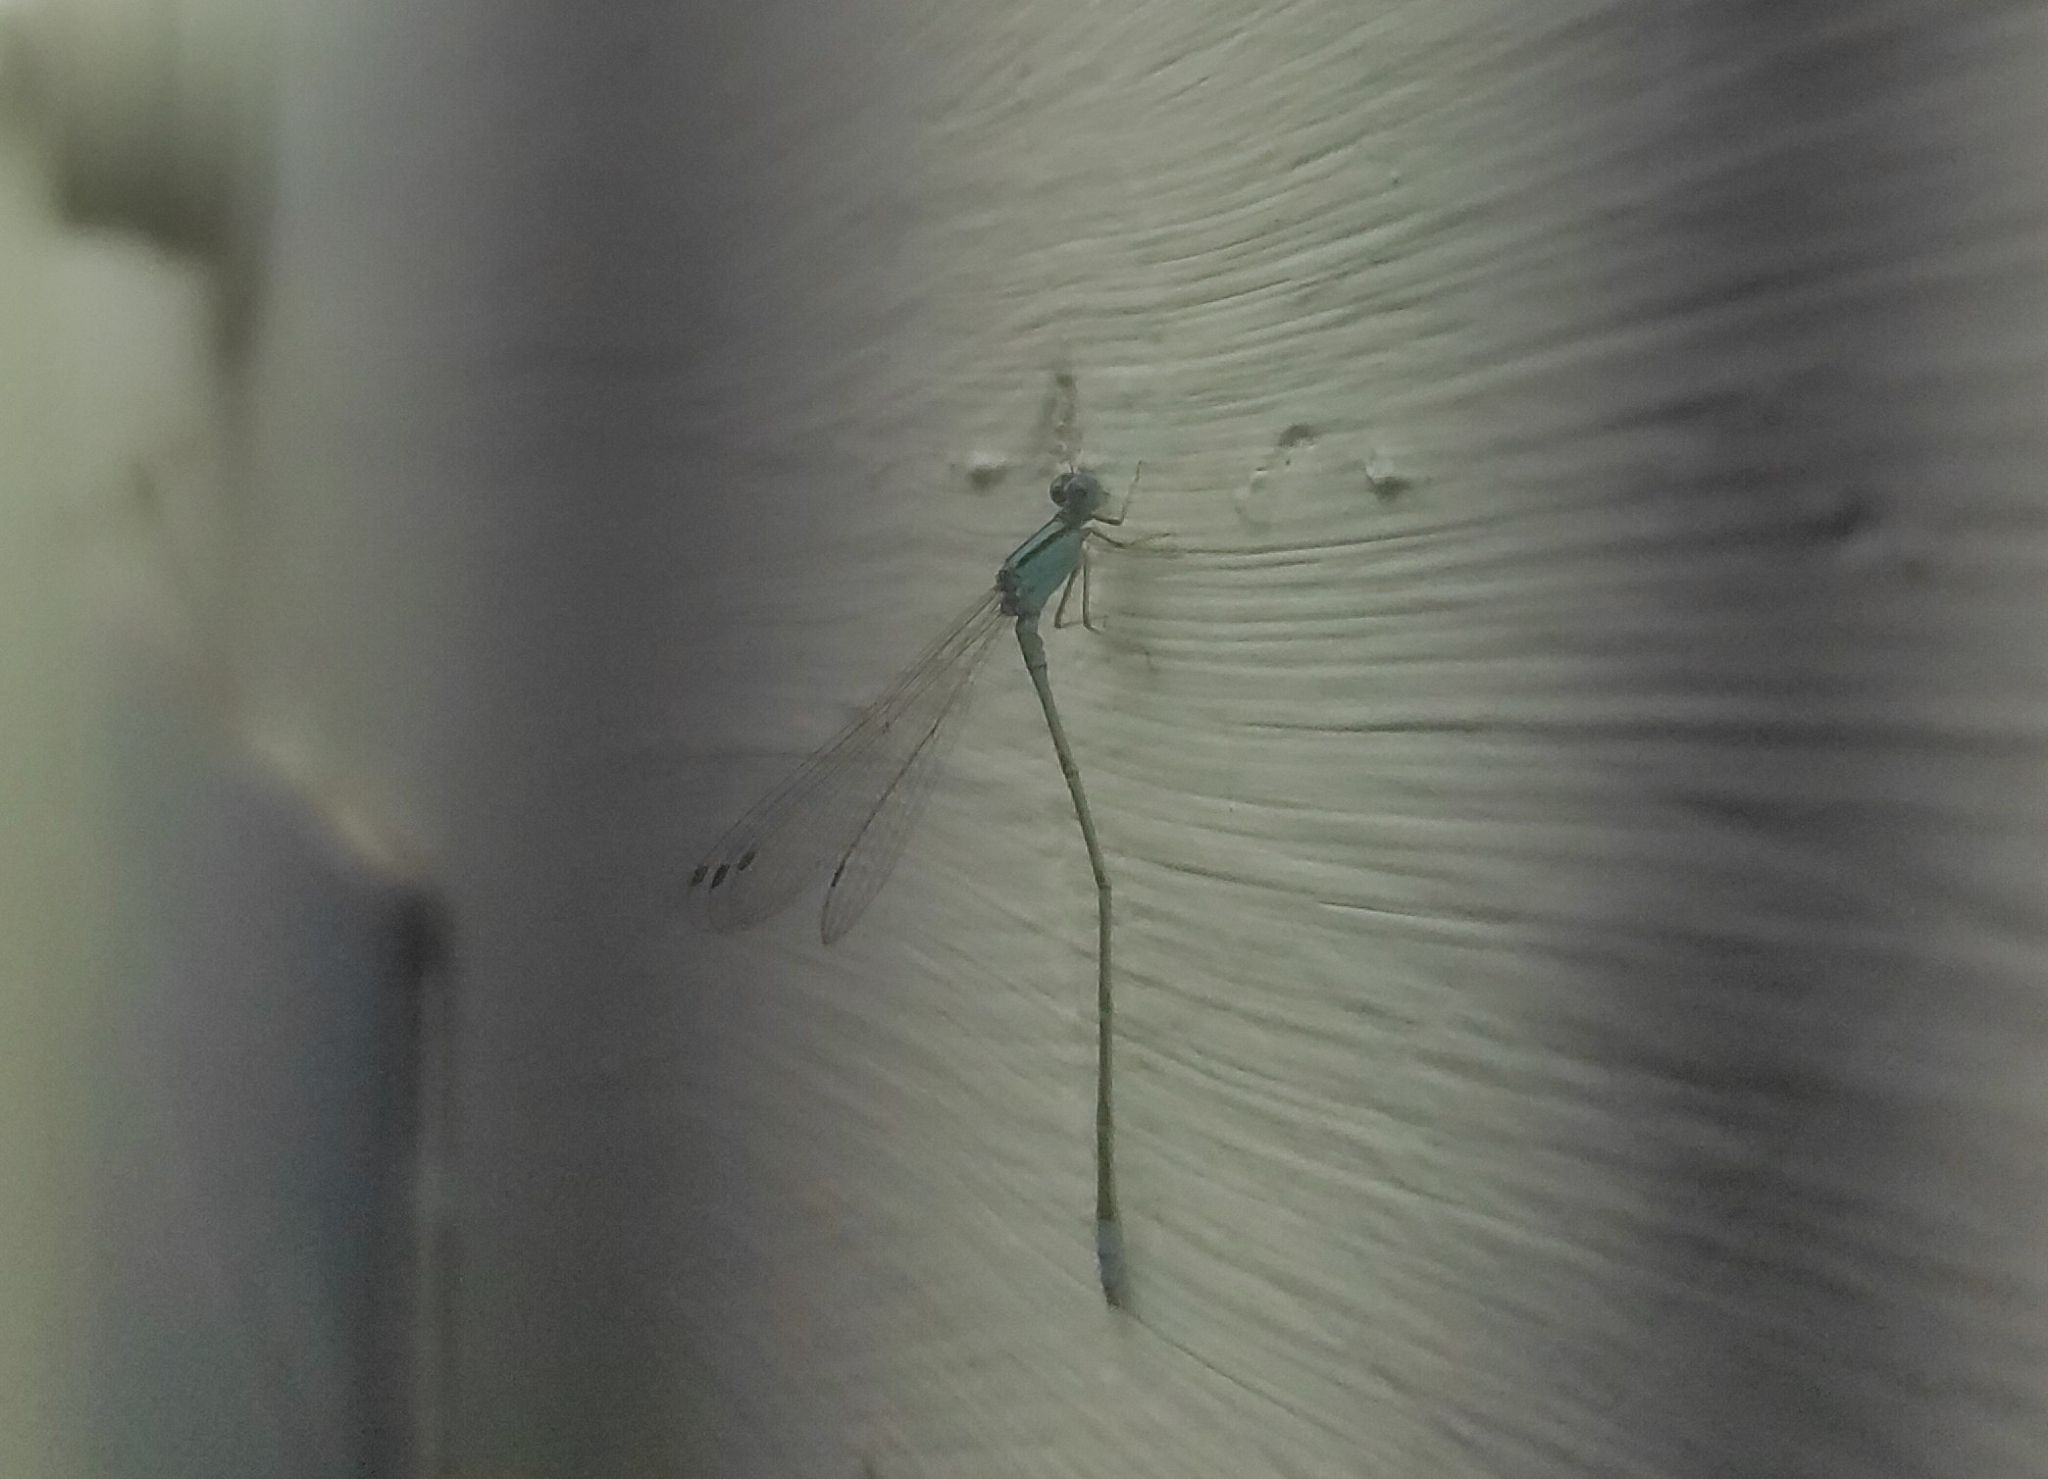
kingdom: Animalia
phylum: Arthropoda
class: Insecta
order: Odonata
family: Coenagrionidae
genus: Pseudagrion
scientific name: Pseudagrion microcephalum
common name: Blue riverdamsel
